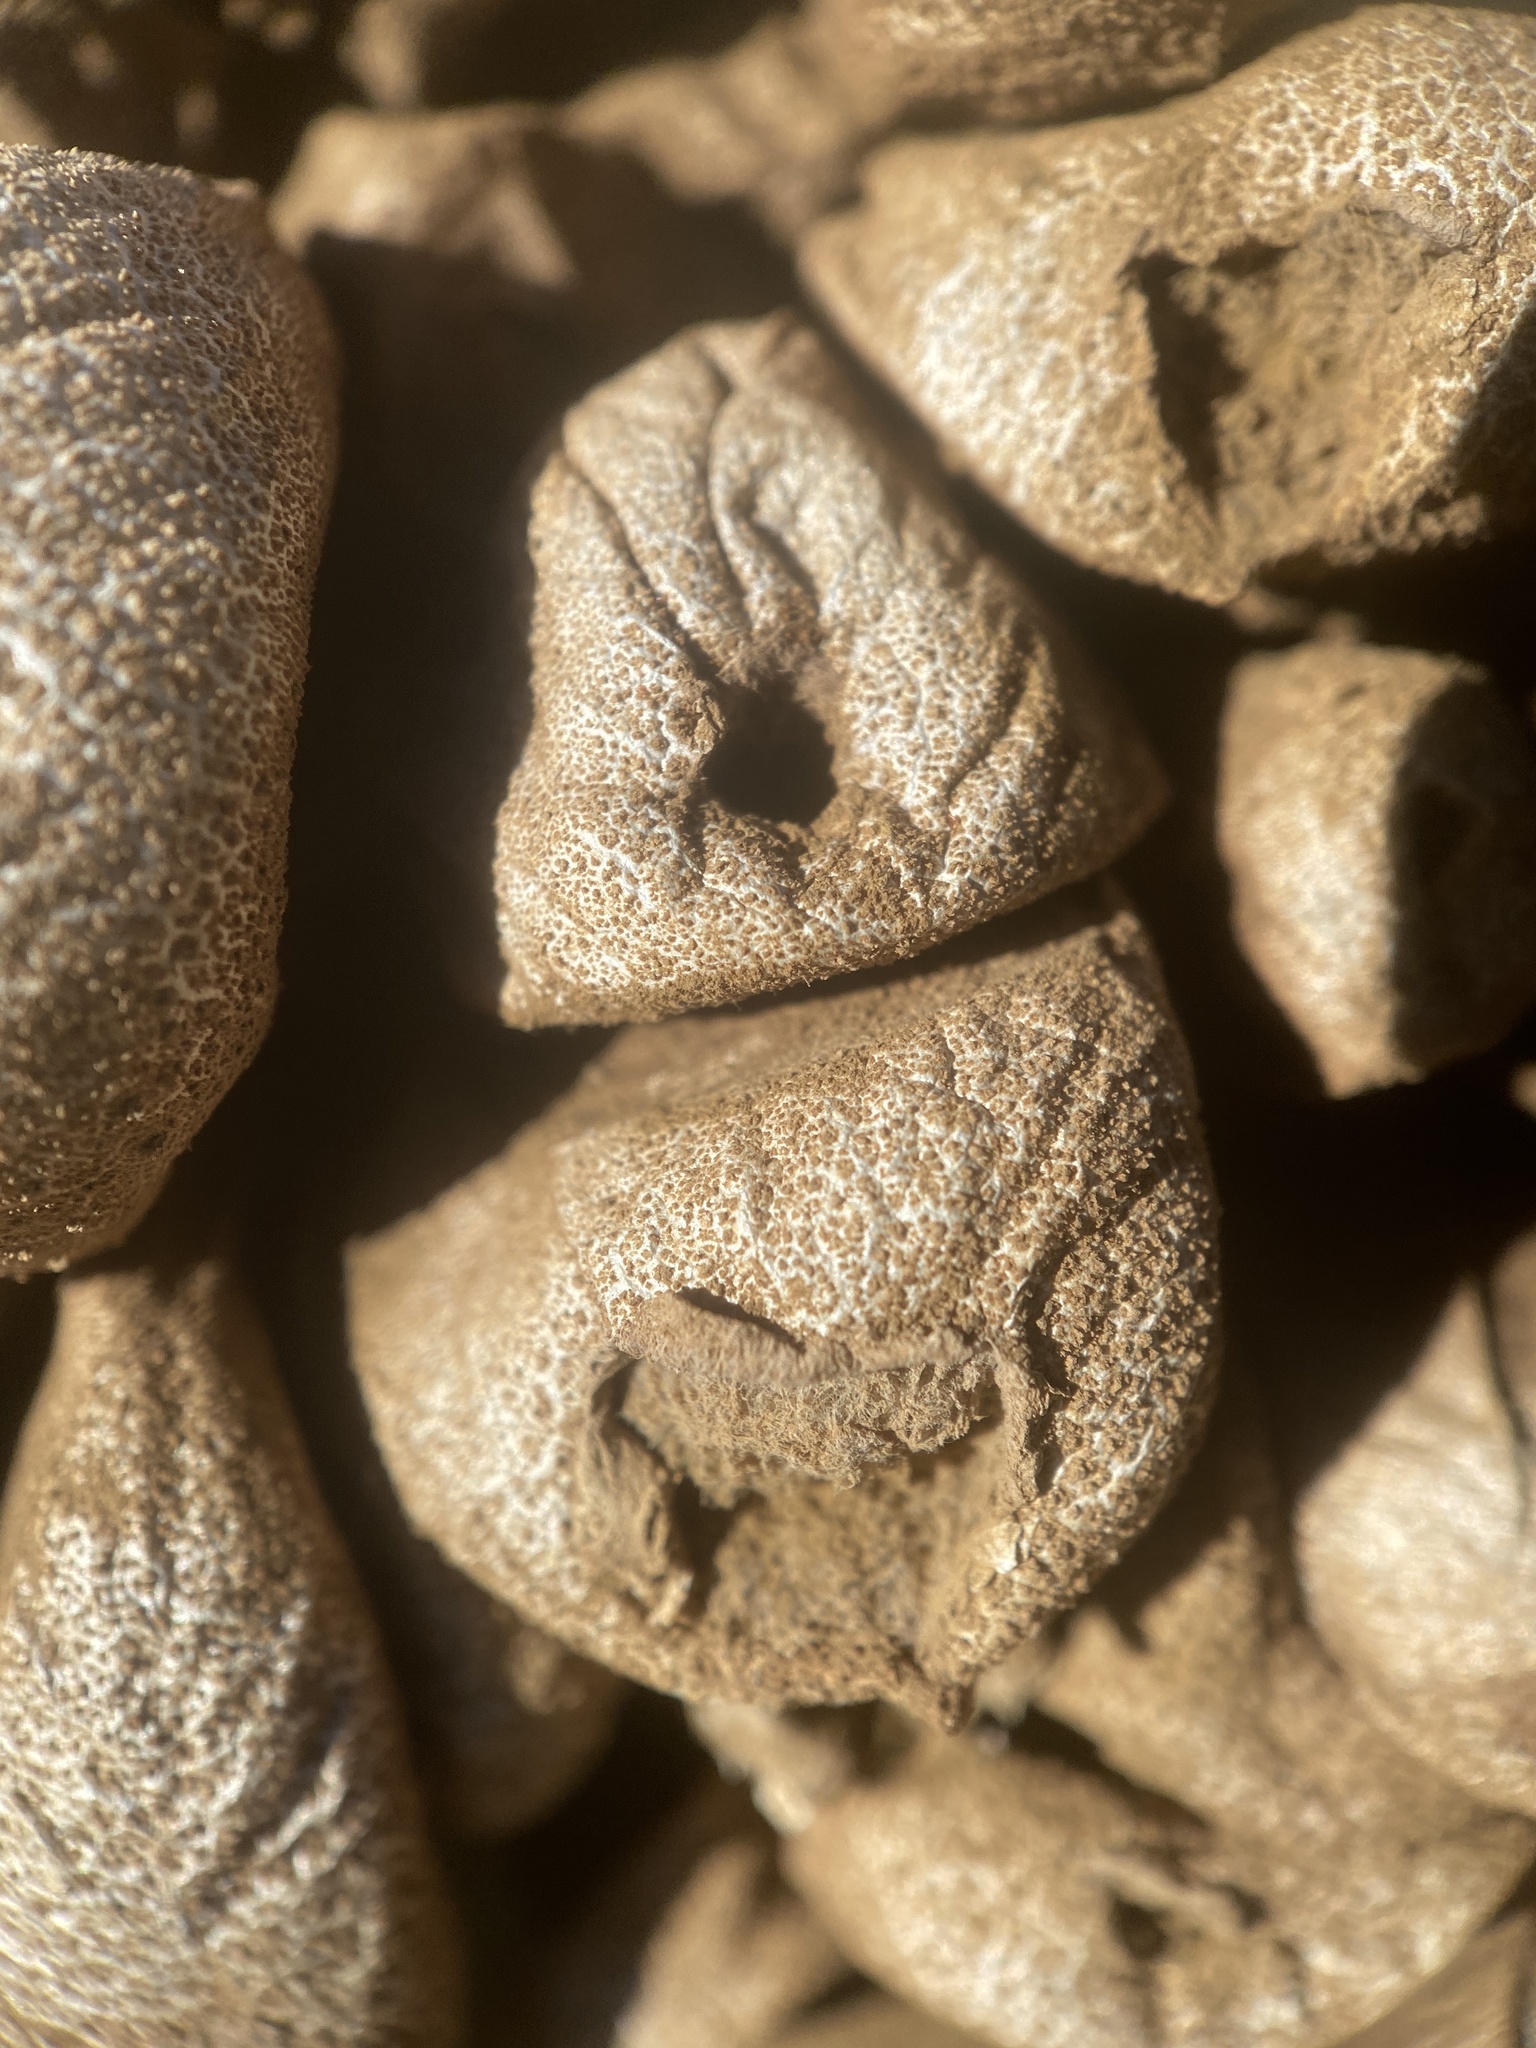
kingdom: Fungi
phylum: Basidiomycota
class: Agaricomycetes
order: Agaricales
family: Lycoperdaceae
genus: Apioperdon
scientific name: Apioperdon pyriforme
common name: Pear-shaped puffball
